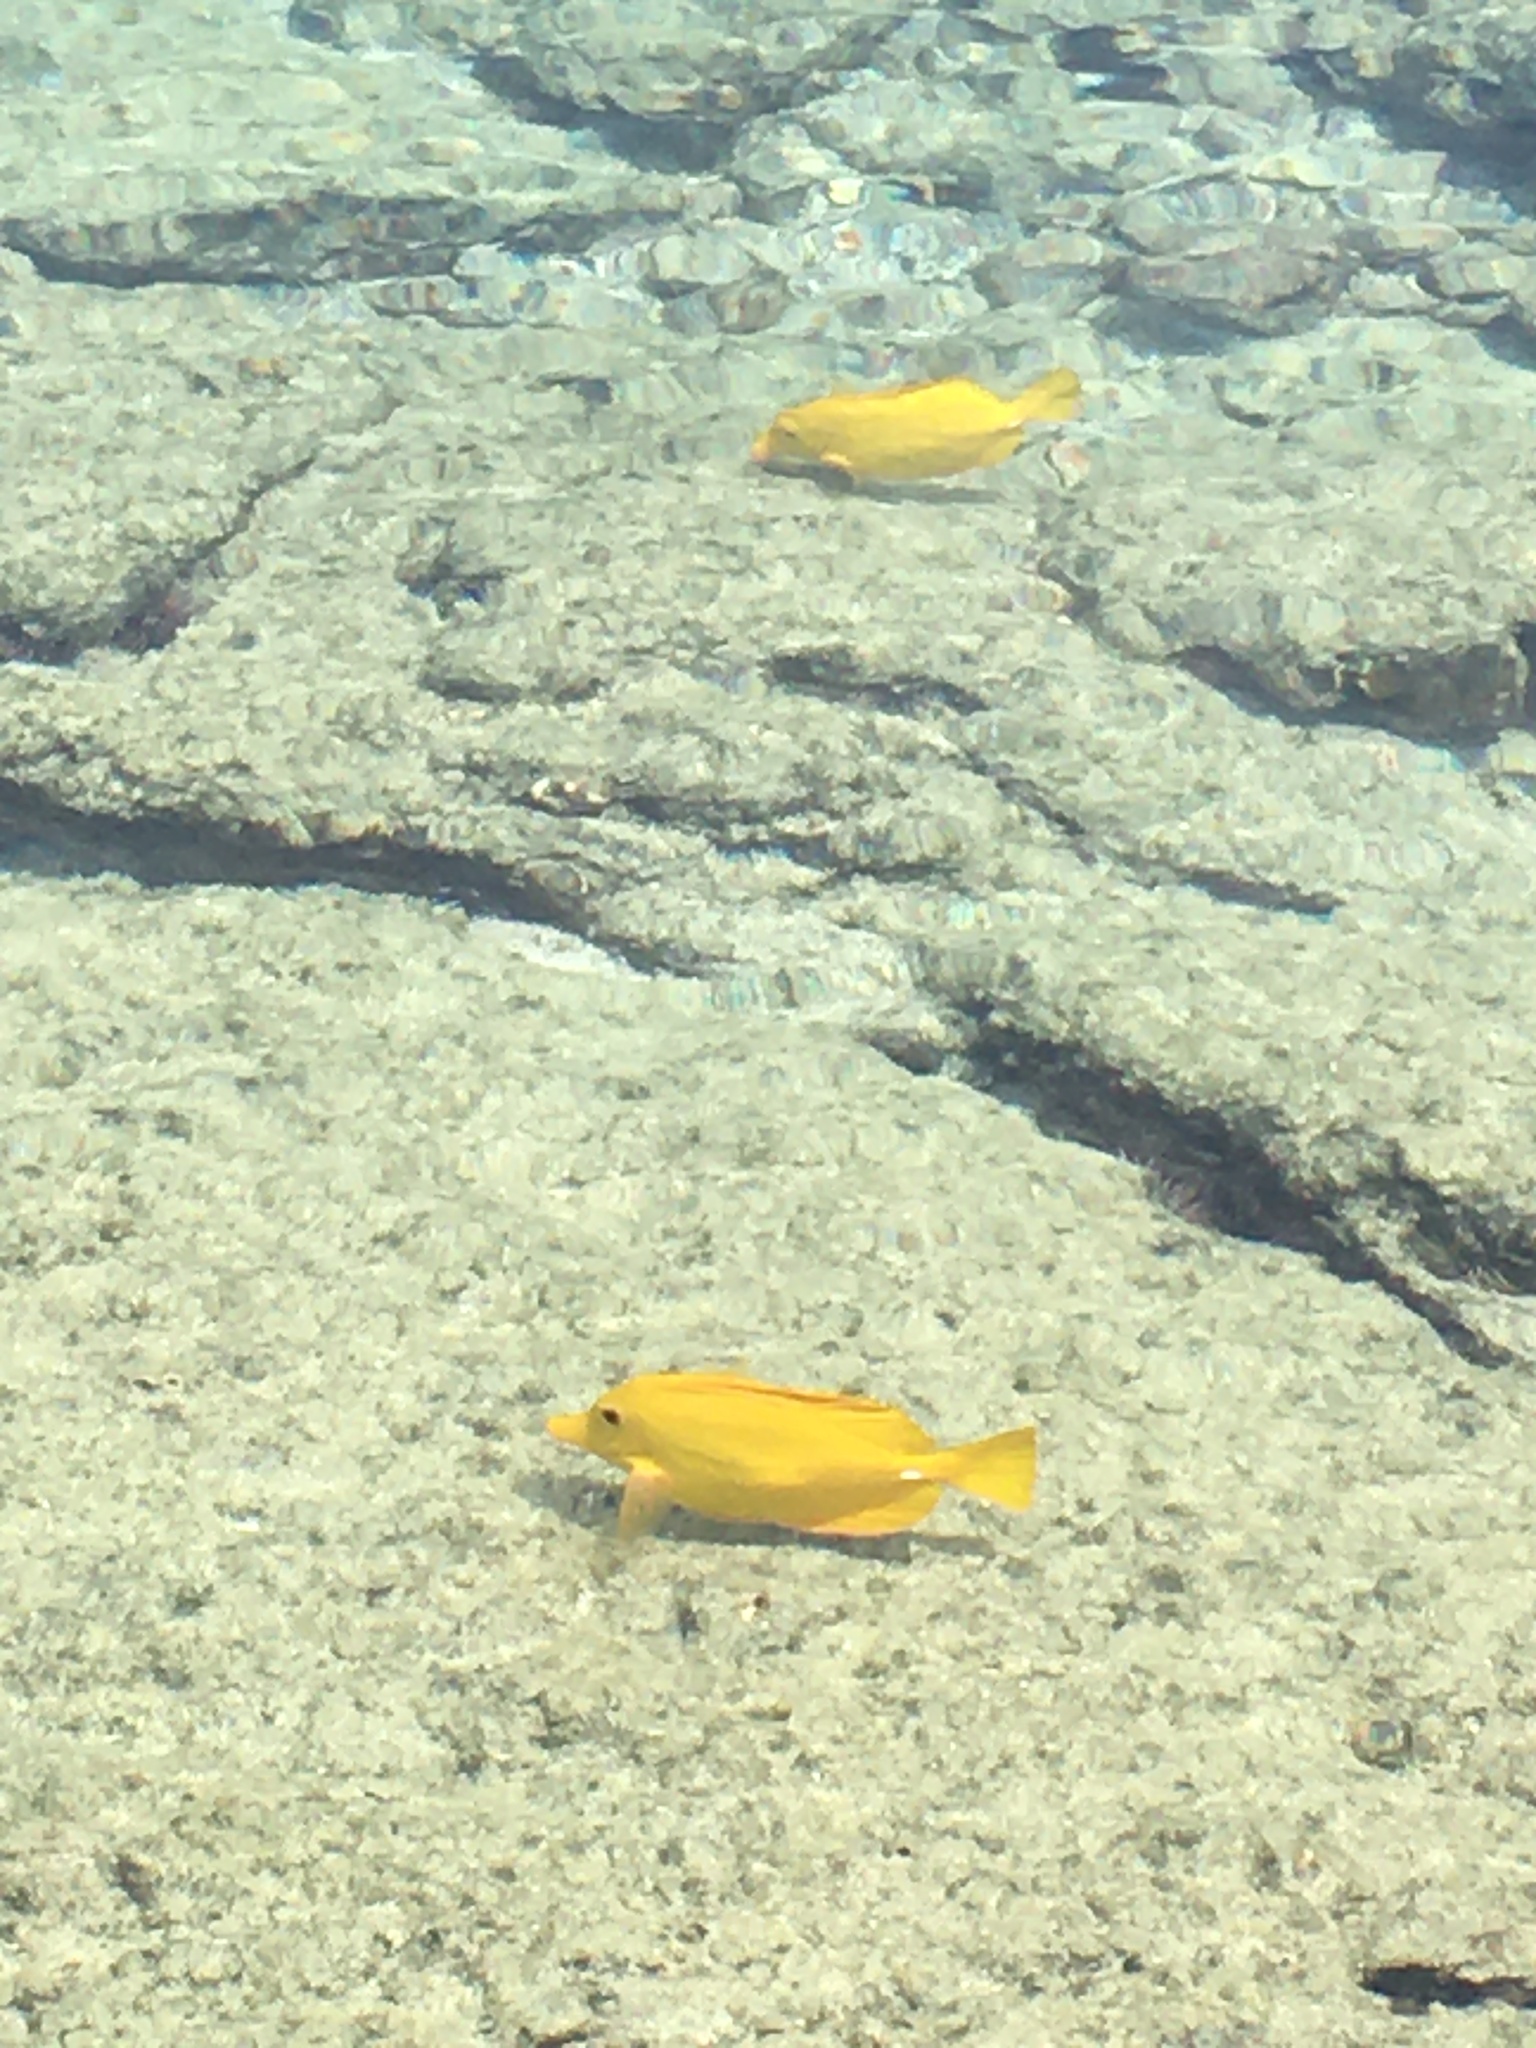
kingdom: Animalia
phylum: Chordata
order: Perciformes
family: Acanthuridae
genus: Zebrasoma
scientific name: Zebrasoma flavescens
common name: Yellow tang
